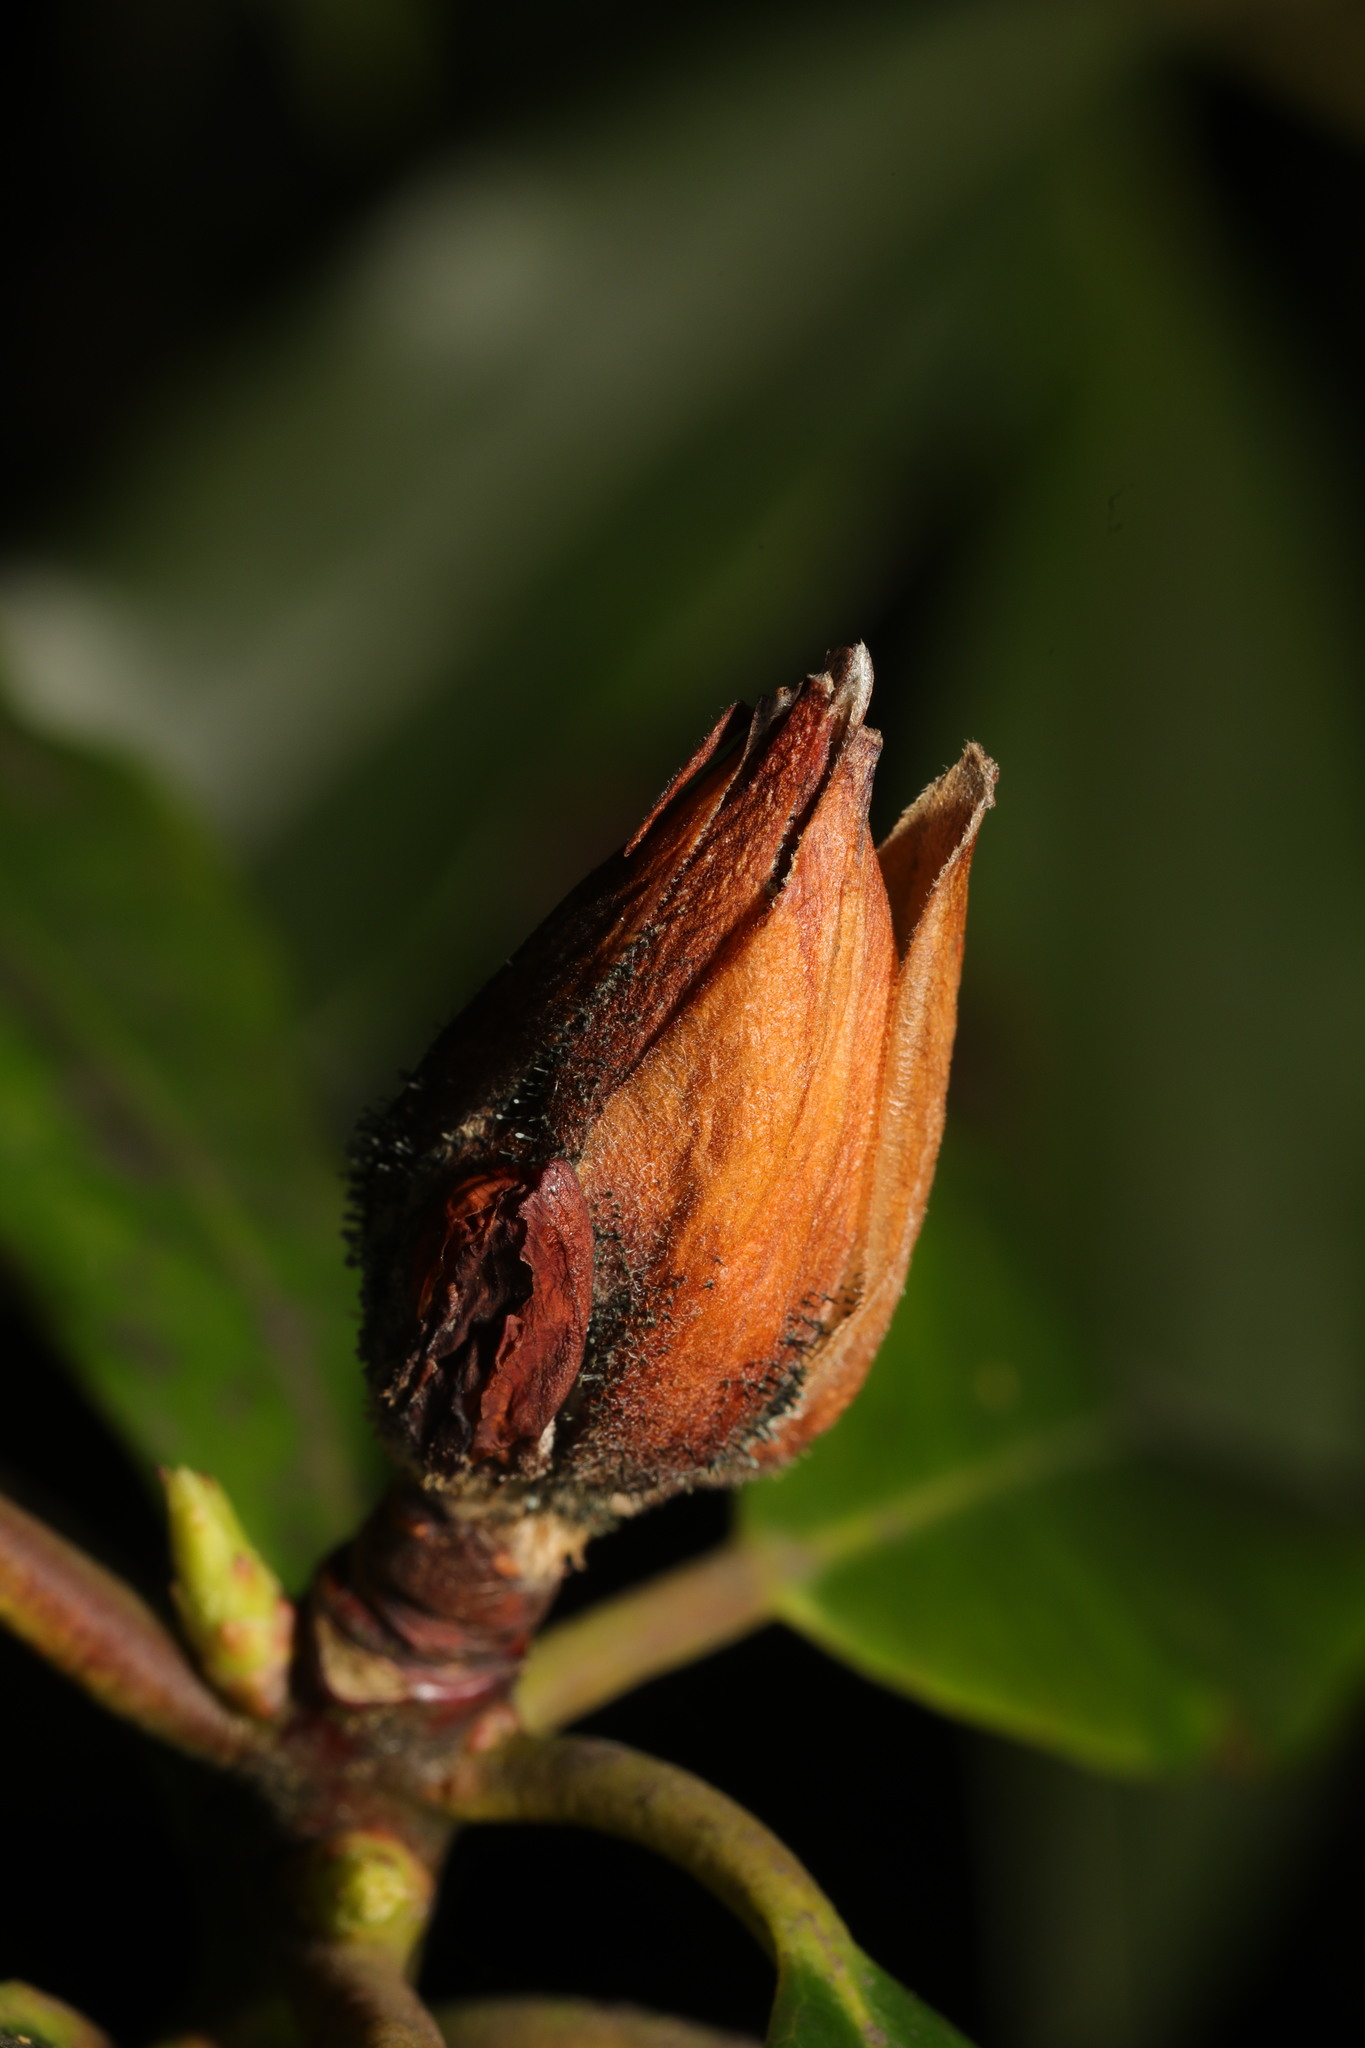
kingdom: Fungi
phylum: Ascomycota
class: Dothideomycetes
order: Pleosporales
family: Melanommataceae
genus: Seifertia
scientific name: Seifertia azaleae
